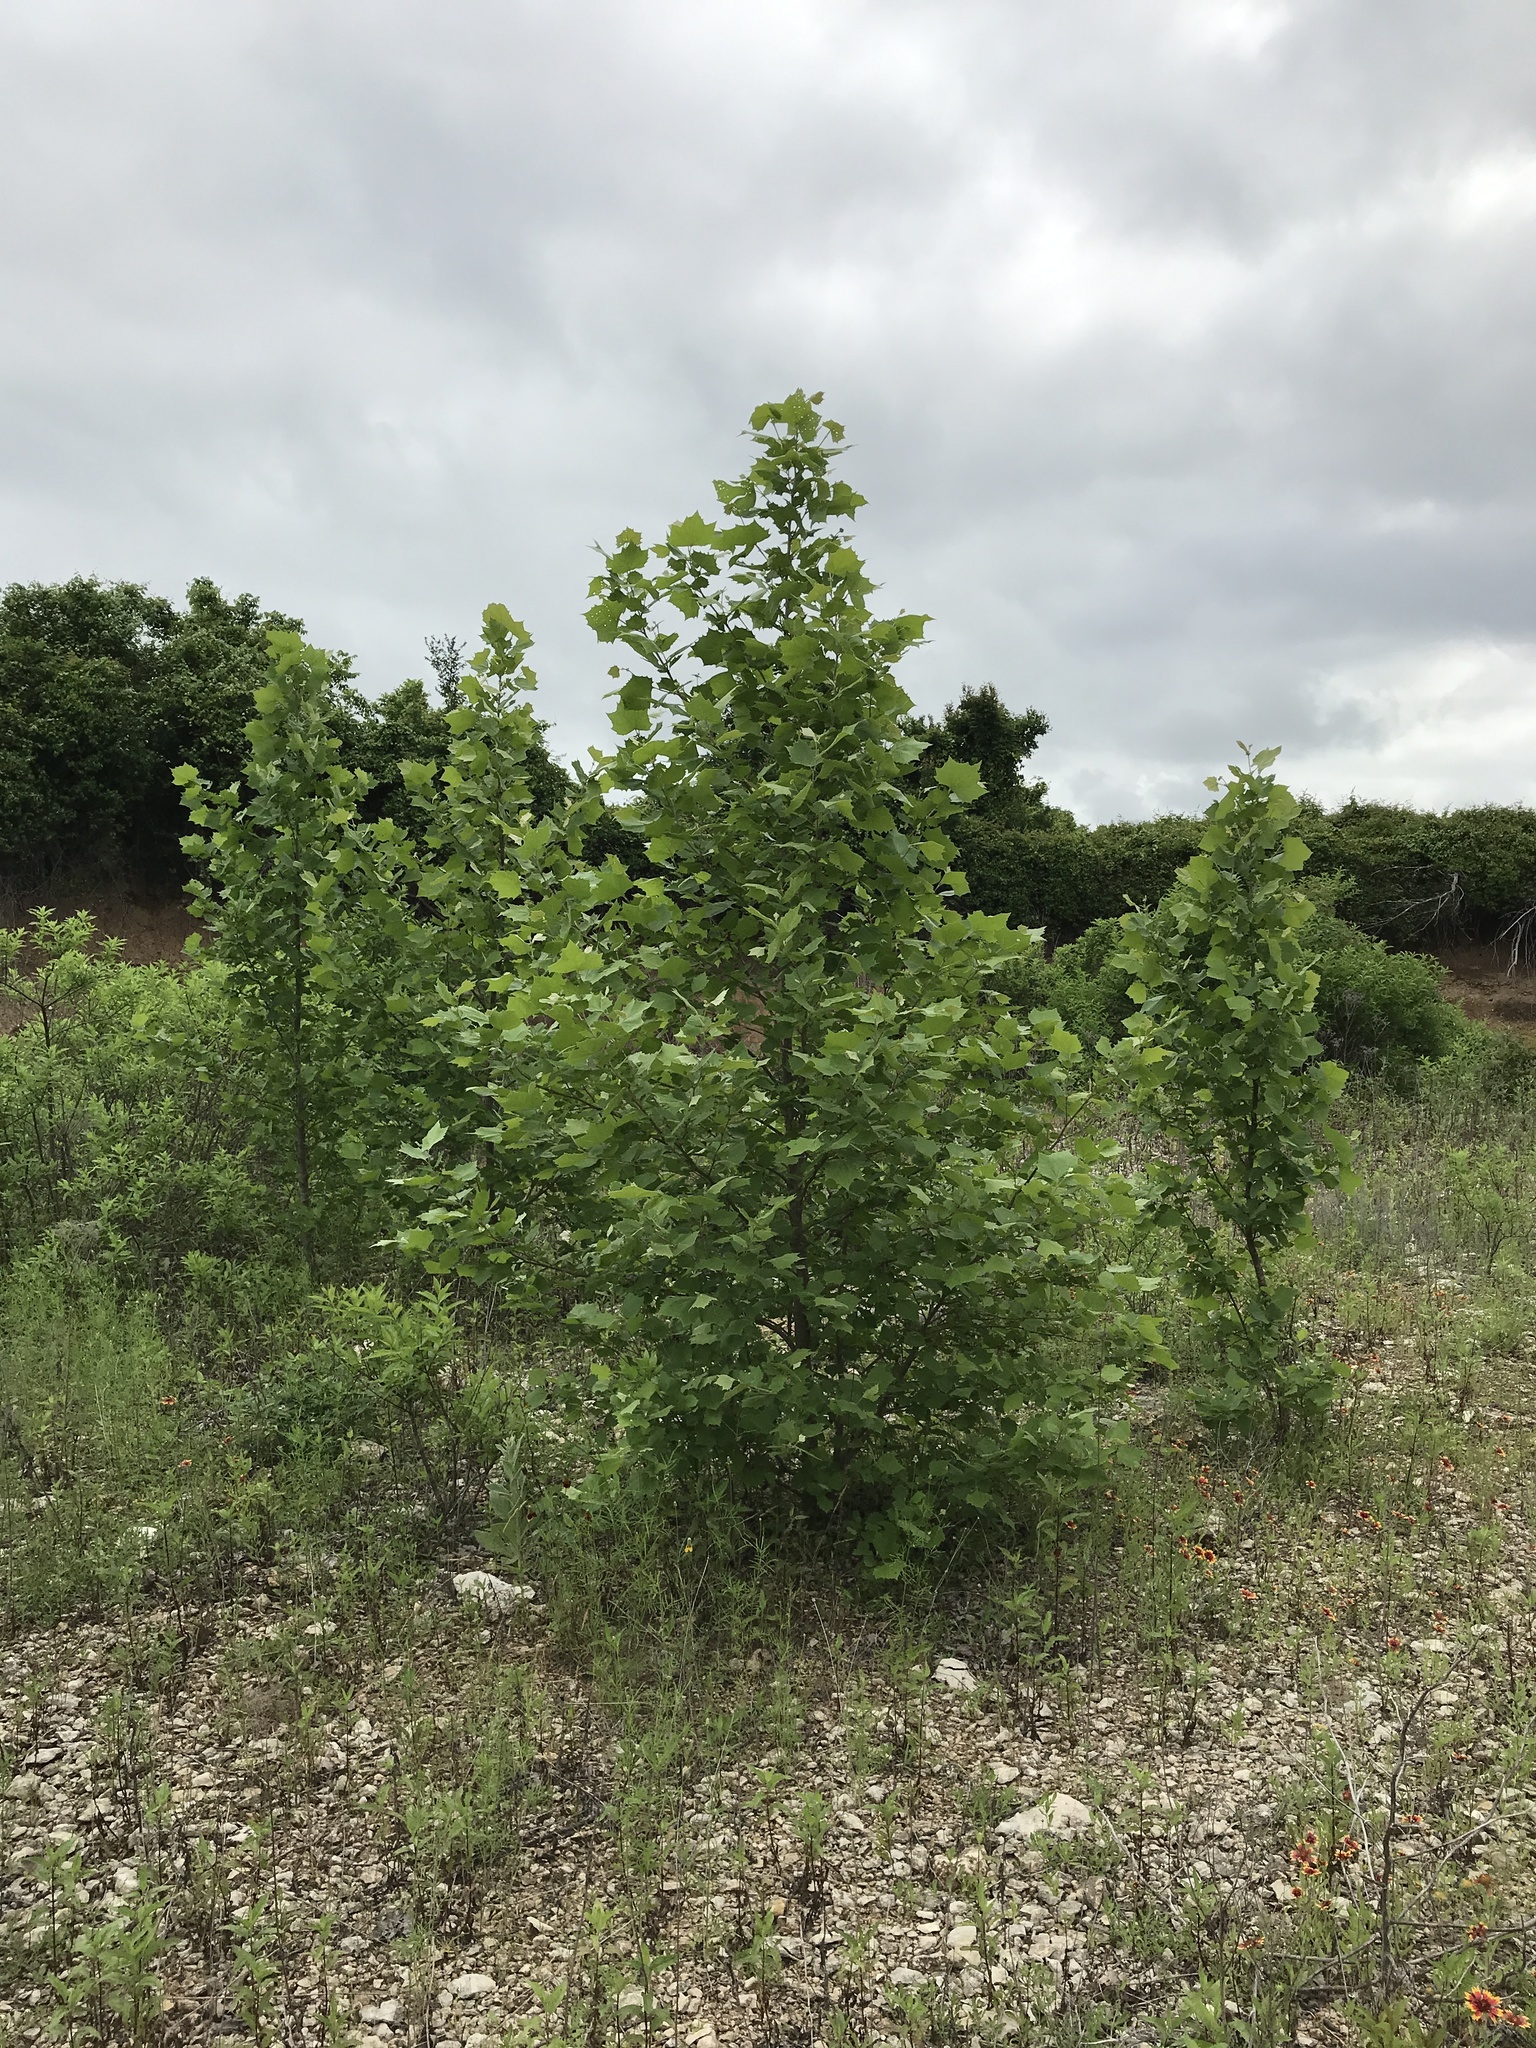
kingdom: Plantae
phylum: Tracheophyta
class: Magnoliopsida
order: Proteales
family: Platanaceae
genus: Platanus
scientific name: Platanus occidentalis
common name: American sycamore
